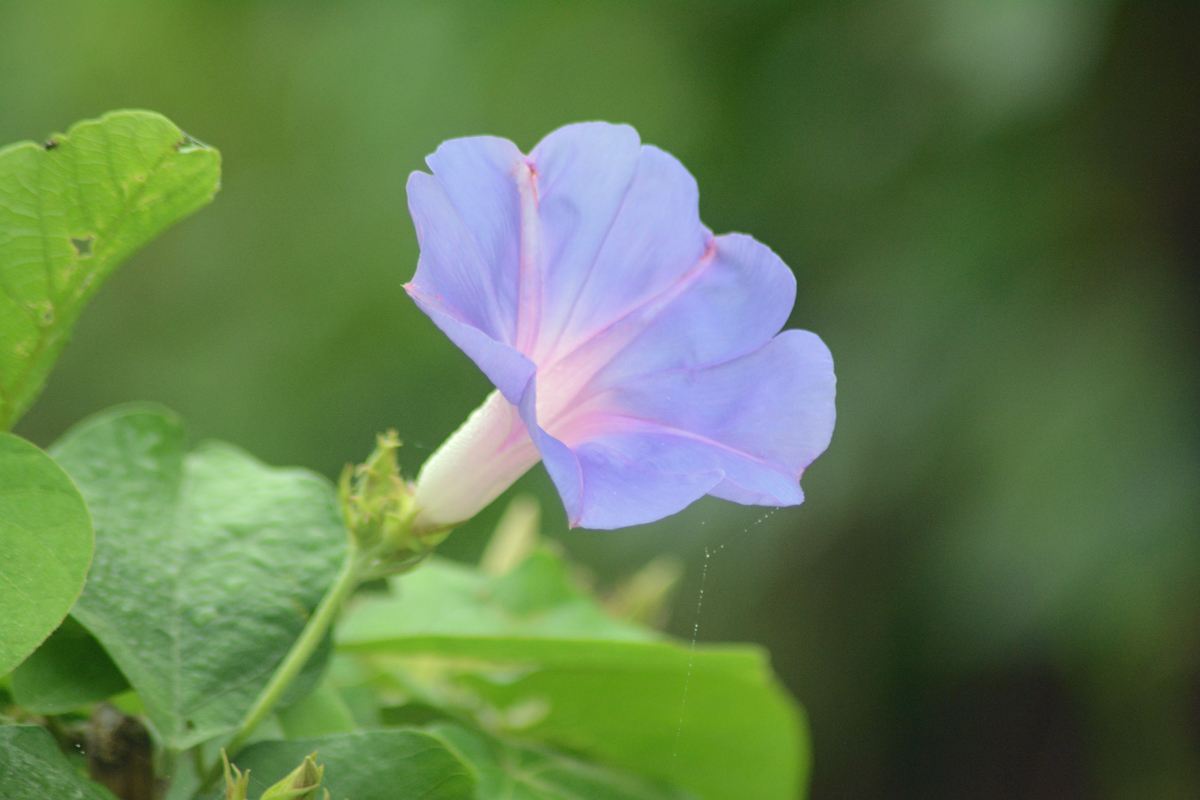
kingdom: Plantae
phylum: Tracheophyta
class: Magnoliopsida
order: Solanales
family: Convolvulaceae
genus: Ipomoea
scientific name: Ipomoea indica
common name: Blue dawnflower
